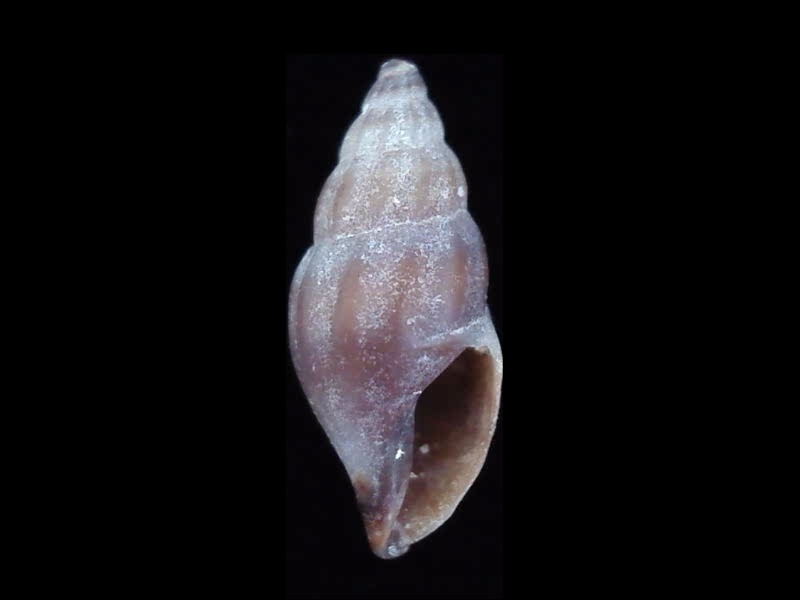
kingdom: Animalia
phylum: Mollusca
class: Gastropoda
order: Neogastropoda
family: Mangeliidae
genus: Neoguraleus
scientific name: Neoguraleus lyallensis
